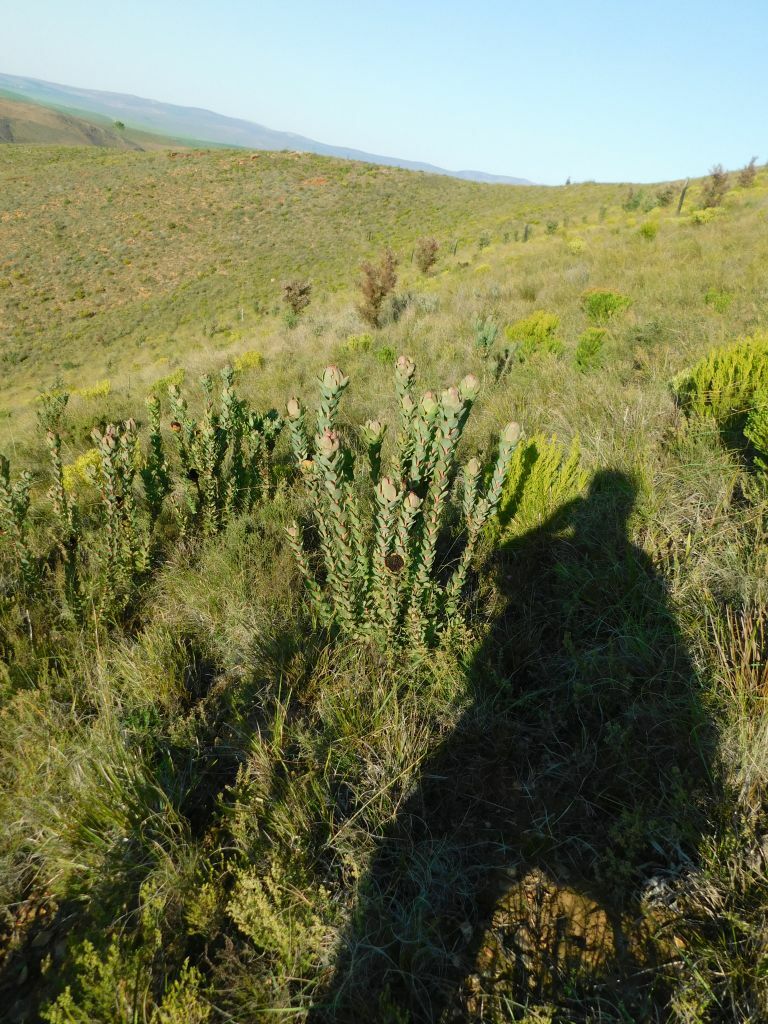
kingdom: Plantae
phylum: Tracheophyta
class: Magnoliopsida
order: Proteales
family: Proteaceae
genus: Leucadendron
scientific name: Leucadendron elimense
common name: Elim conebush
